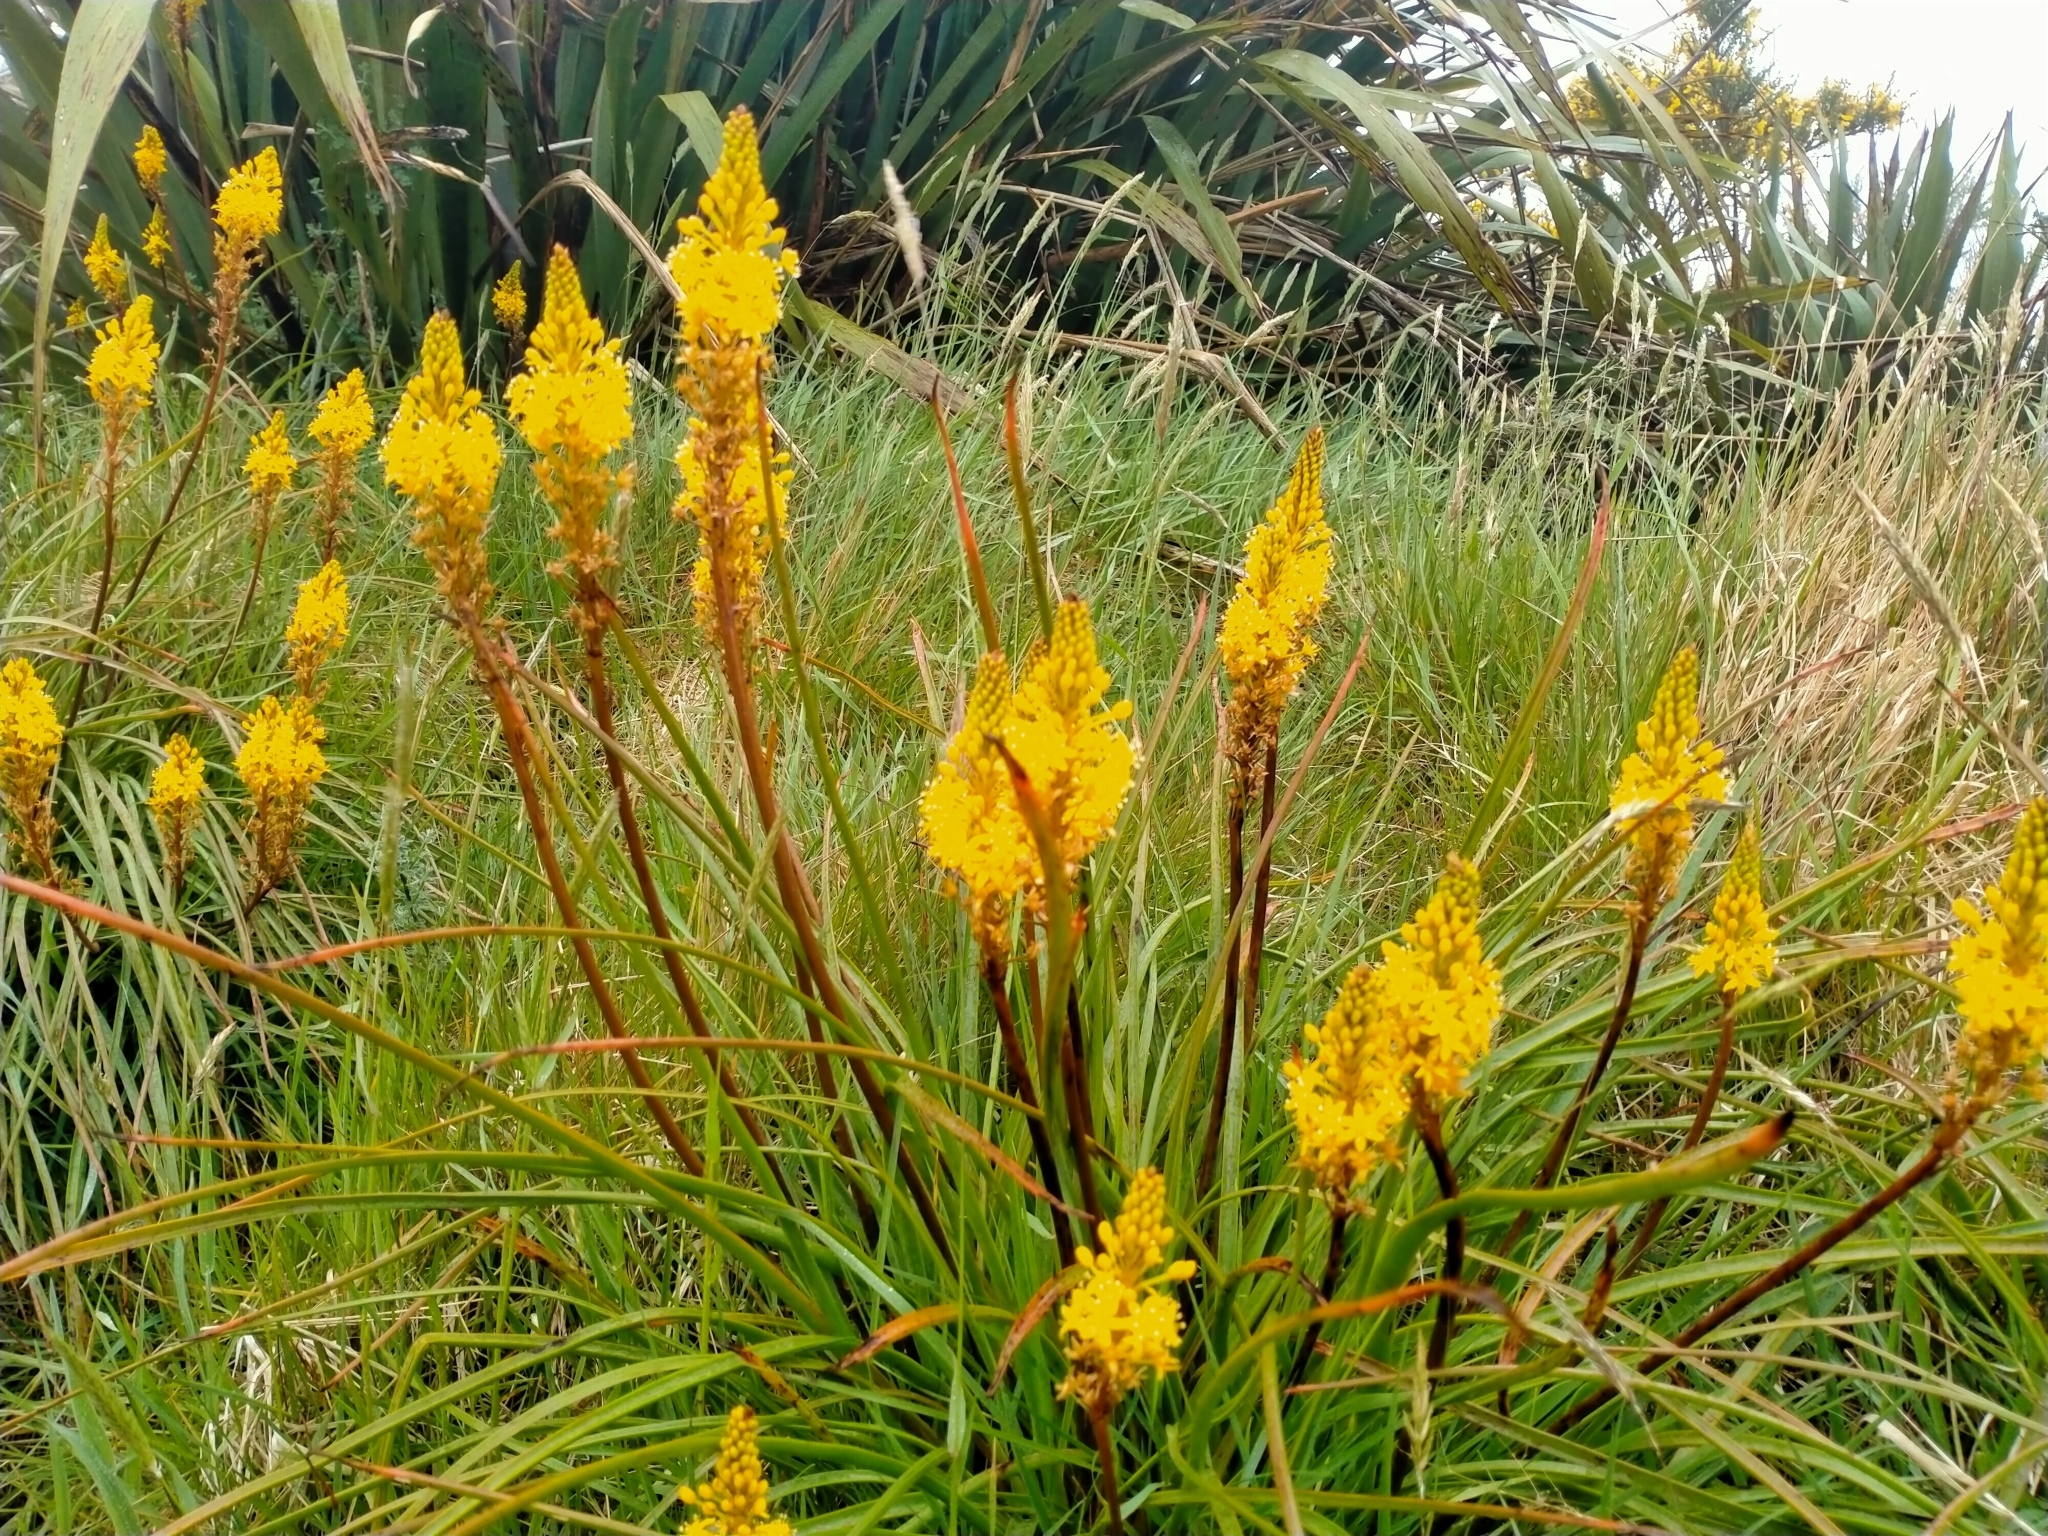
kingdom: Plantae
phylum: Tracheophyta
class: Liliopsida
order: Asparagales
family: Asphodelaceae
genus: Bulbinella
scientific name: Bulbinella angustifolia
